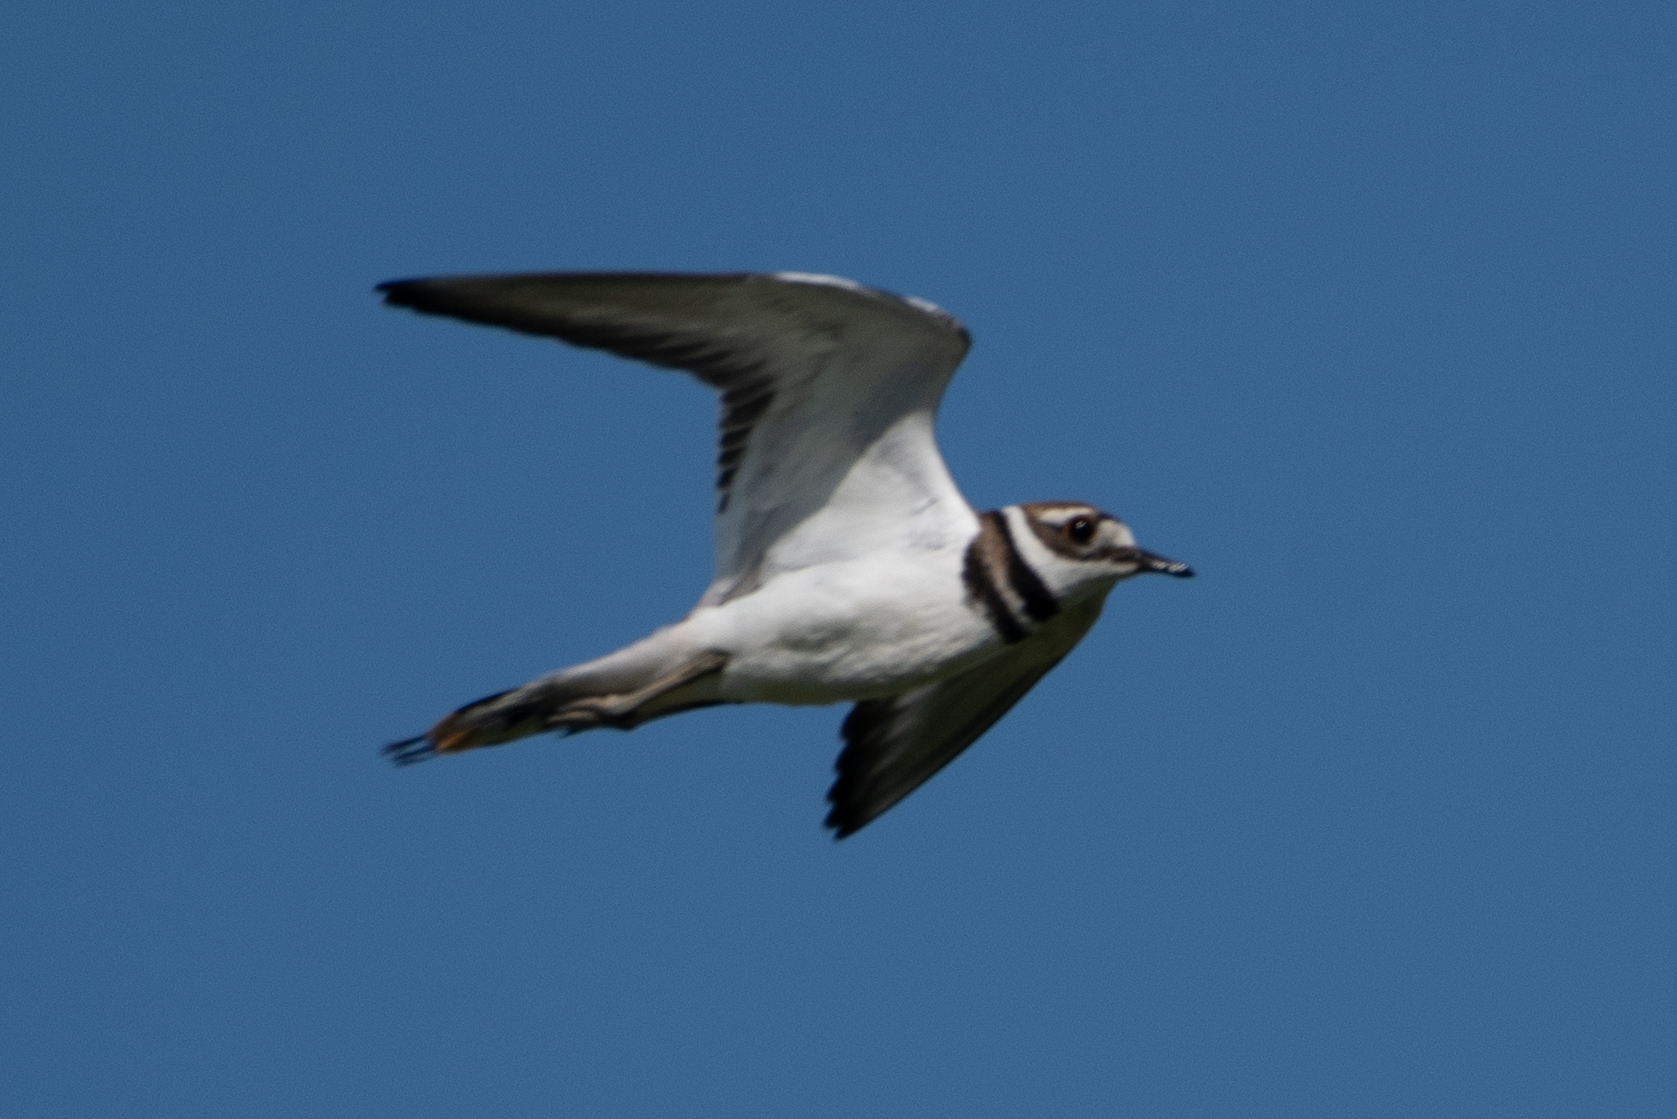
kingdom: Animalia
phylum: Chordata
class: Aves
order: Charadriiformes
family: Charadriidae
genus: Charadrius
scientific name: Charadrius vociferus
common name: Killdeer
